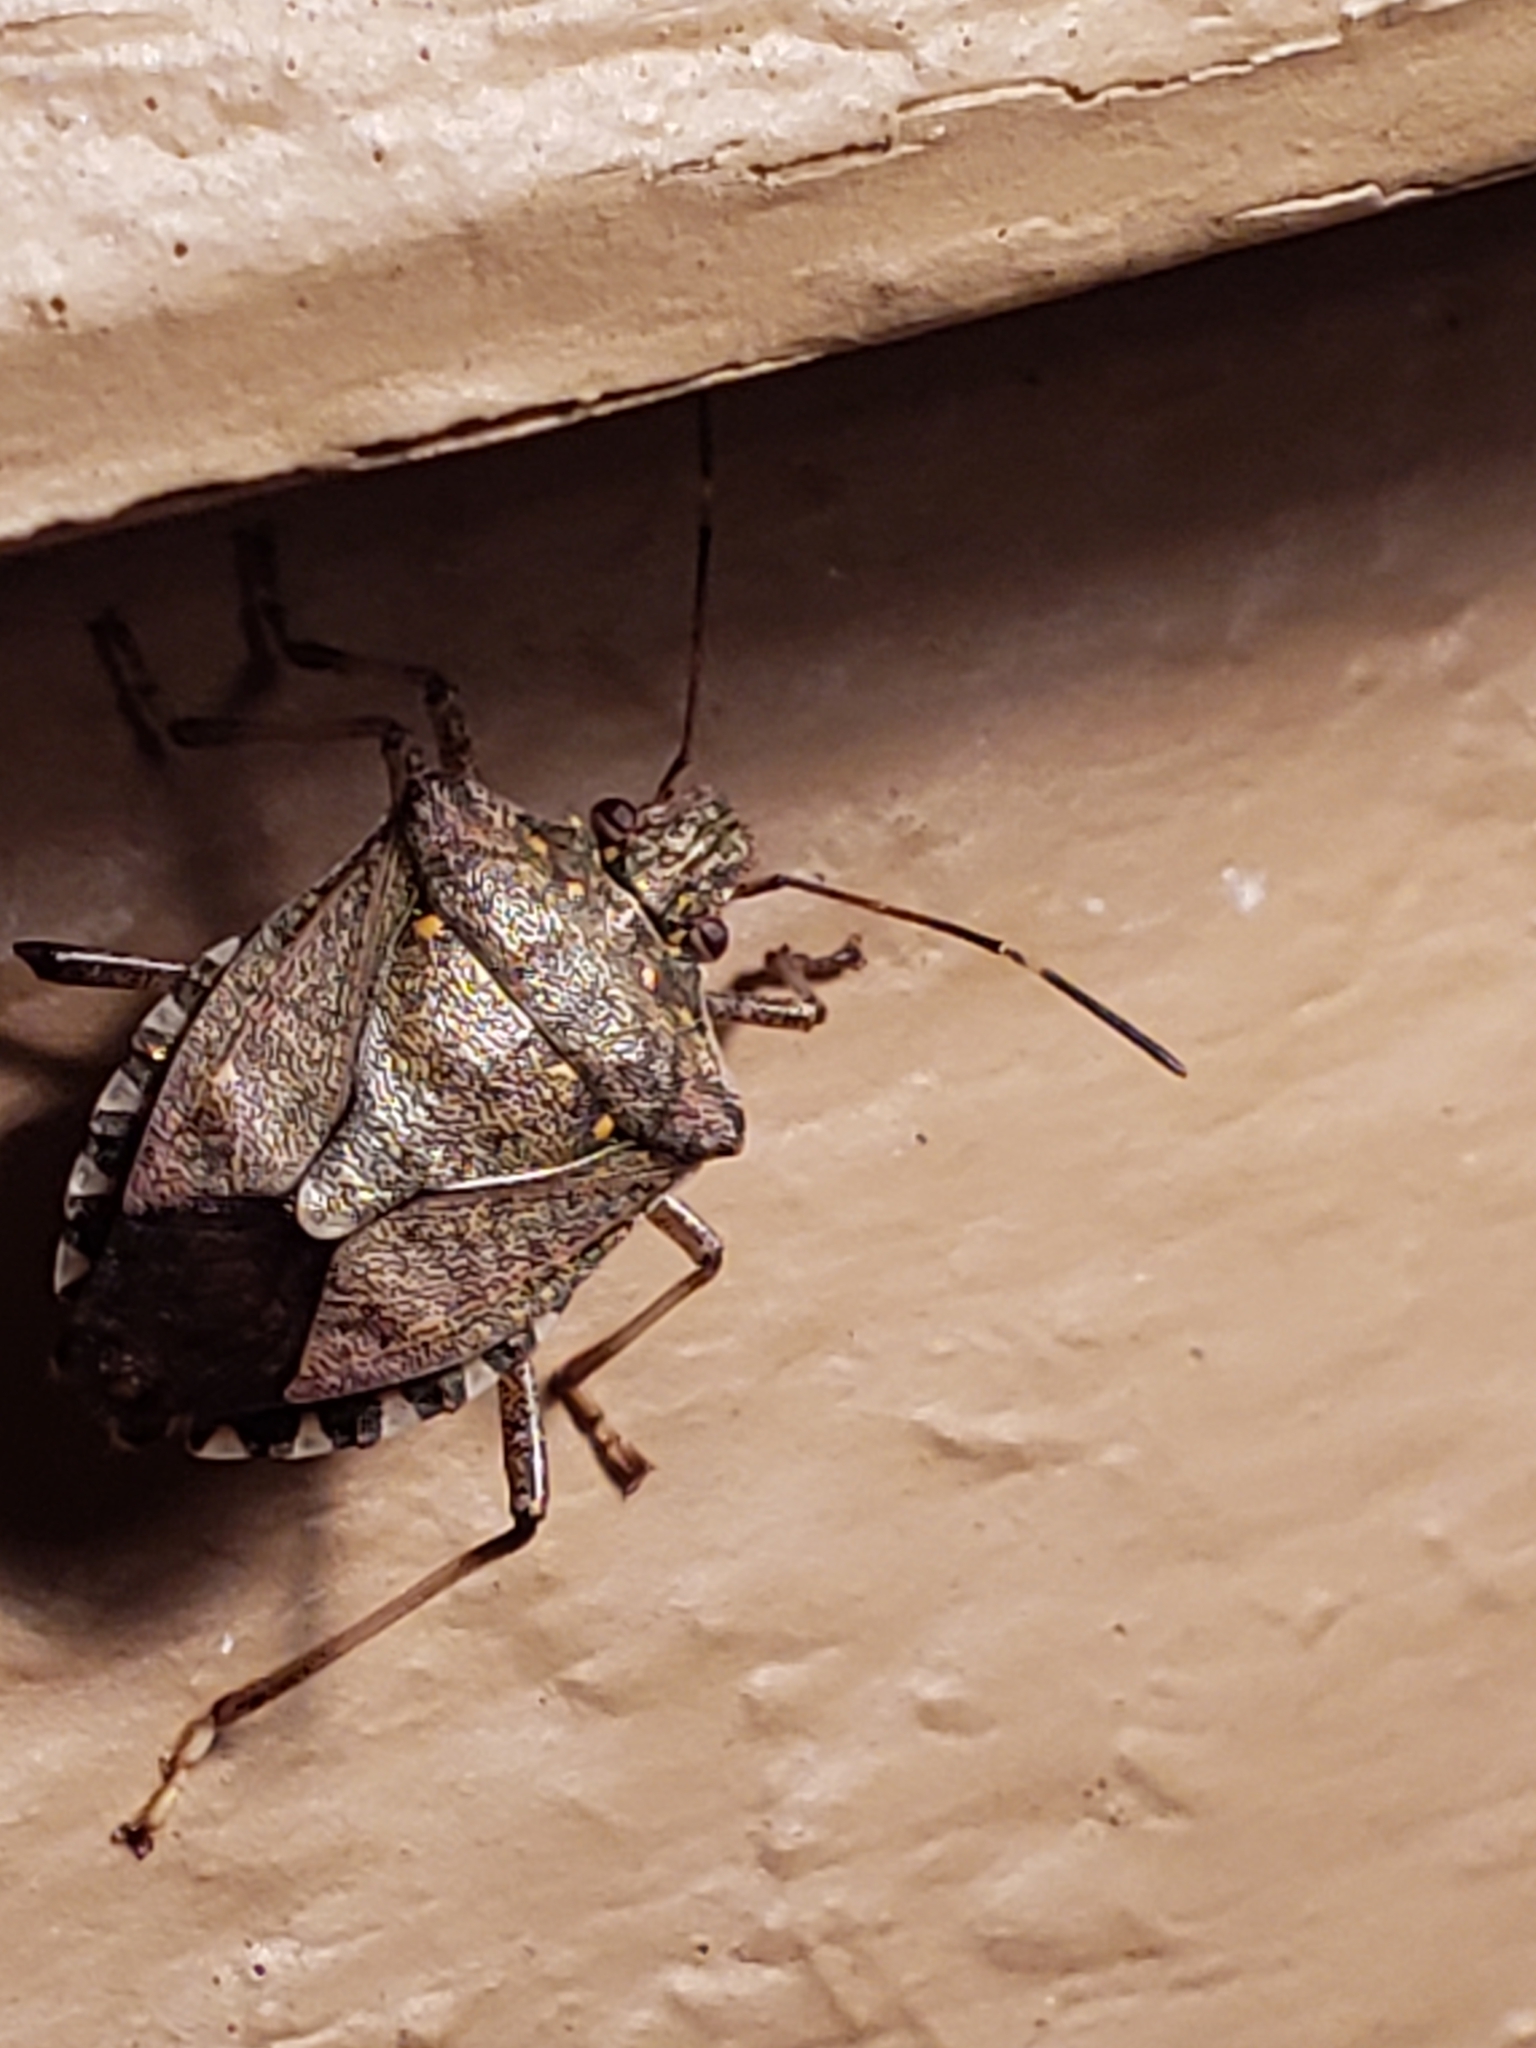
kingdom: Animalia
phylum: Arthropoda
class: Insecta
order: Hemiptera
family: Pentatomidae
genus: Halyomorpha
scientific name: Halyomorpha halys
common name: Brown marmorated stink bug
